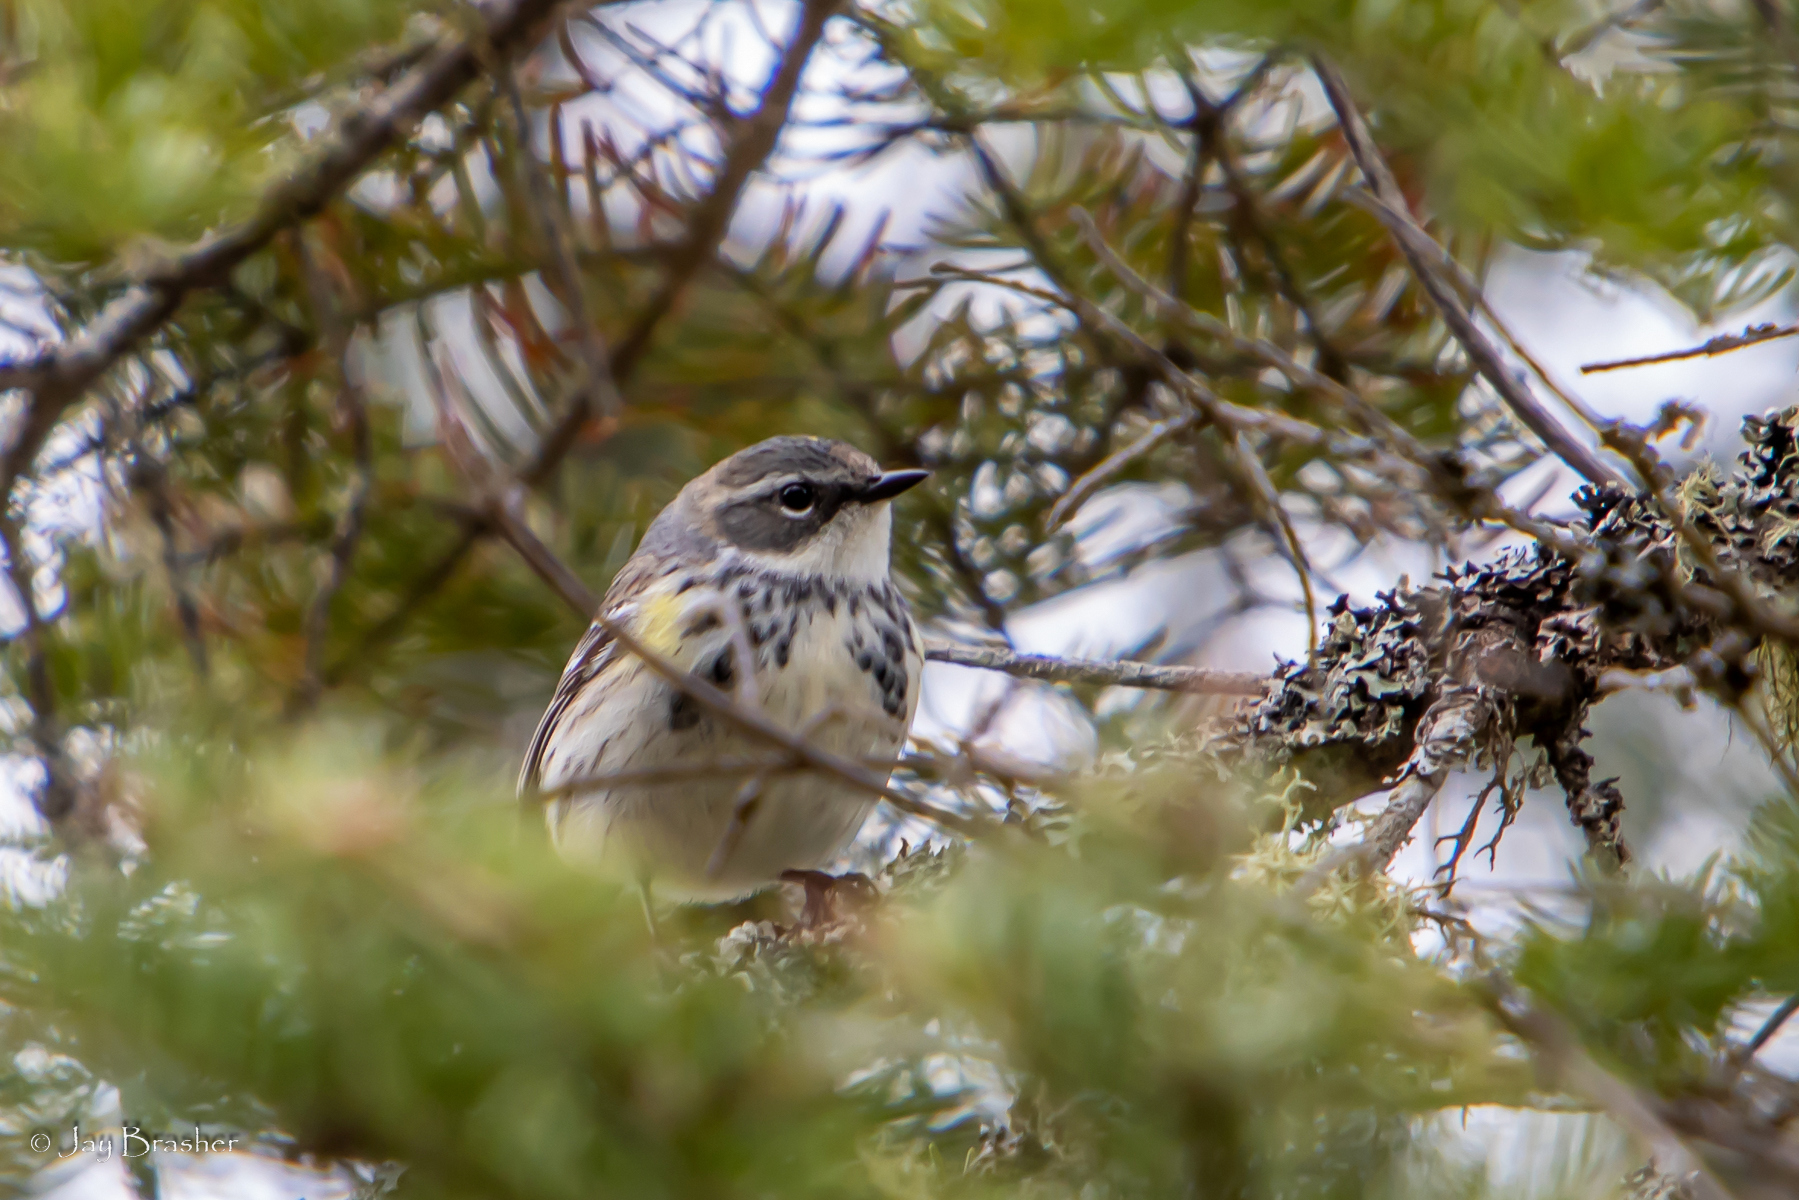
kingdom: Animalia
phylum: Chordata
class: Aves
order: Passeriformes
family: Parulidae
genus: Setophaga
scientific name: Setophaga coronata
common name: Myrtle warbler
